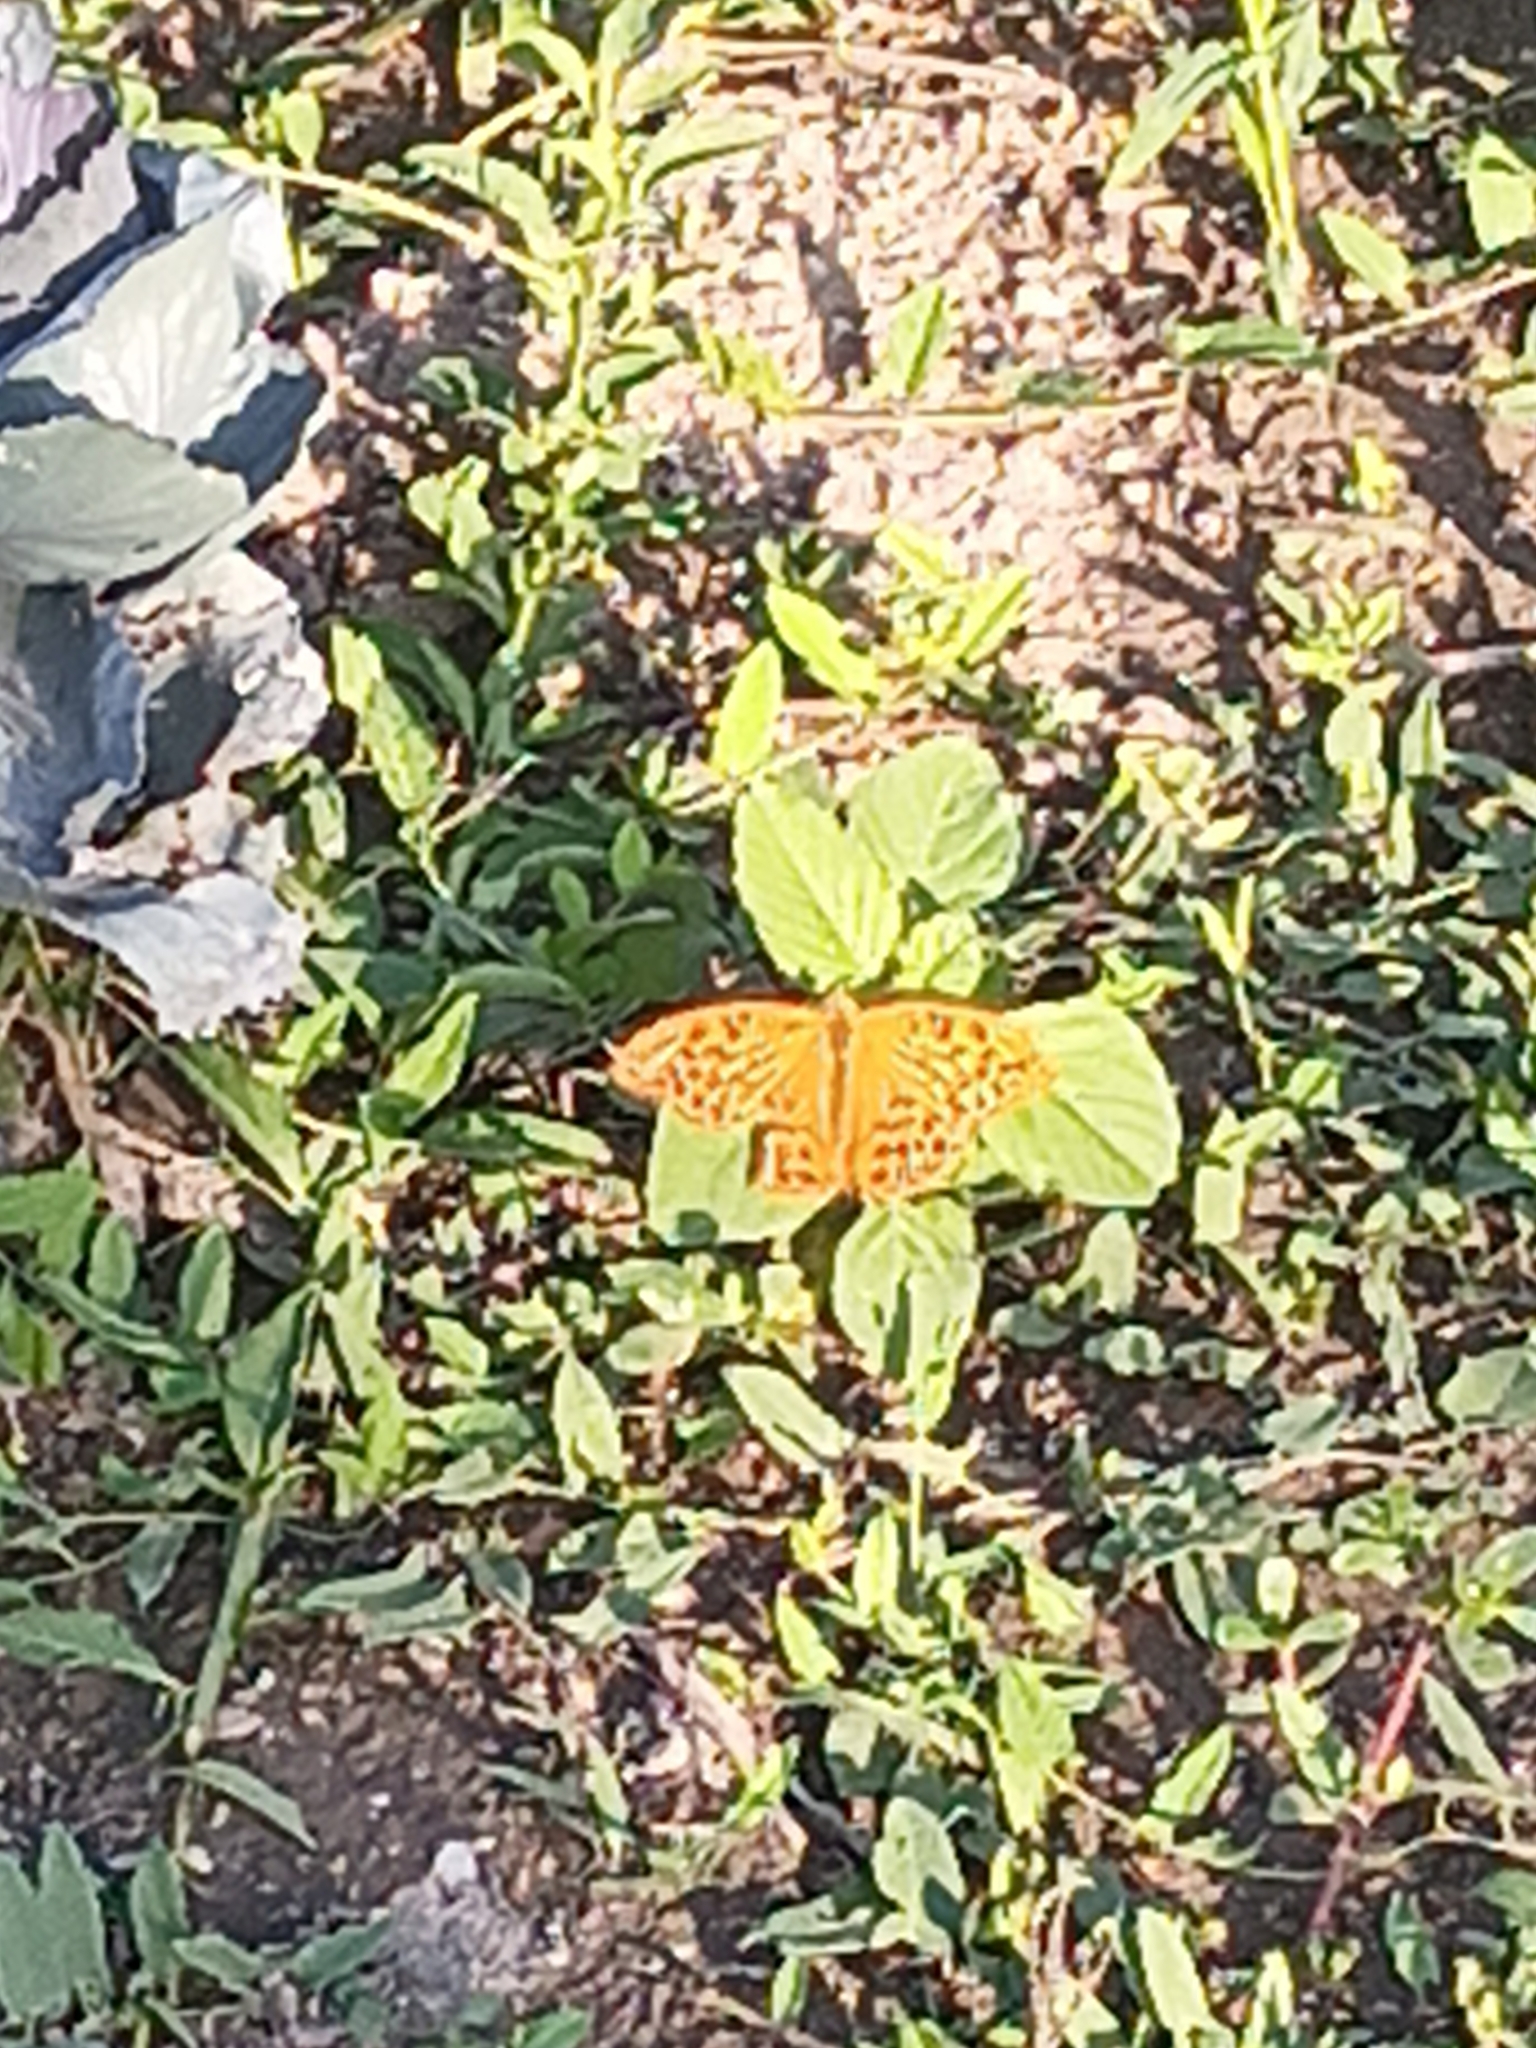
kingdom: Animalia
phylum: Arthropoda
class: Insecta
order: Lepidoptera
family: Nymphalidae
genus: Argynnis
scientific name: Argynnis paphia
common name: Silver-washed fritillary
